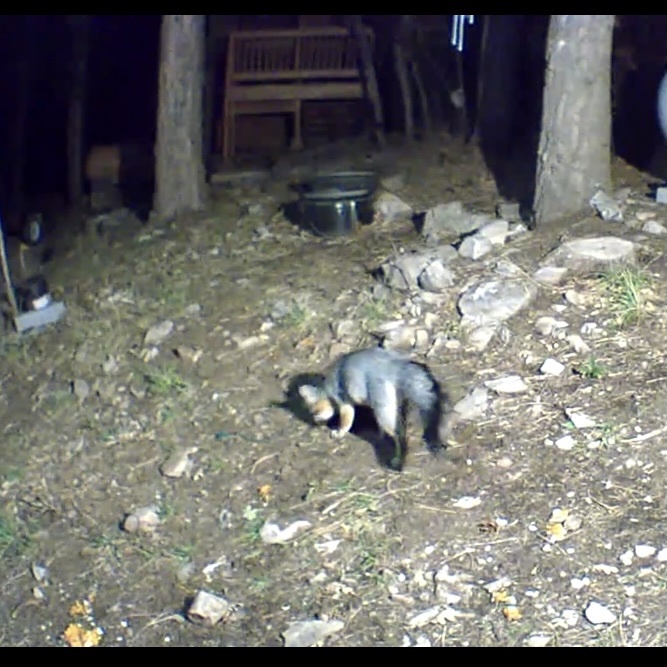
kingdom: Animalia
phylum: Chordata
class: Mammalia
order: Carnivora
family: Canidae
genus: Urocyon
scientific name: Urocyon cinereoargenteus
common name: Gray fox
